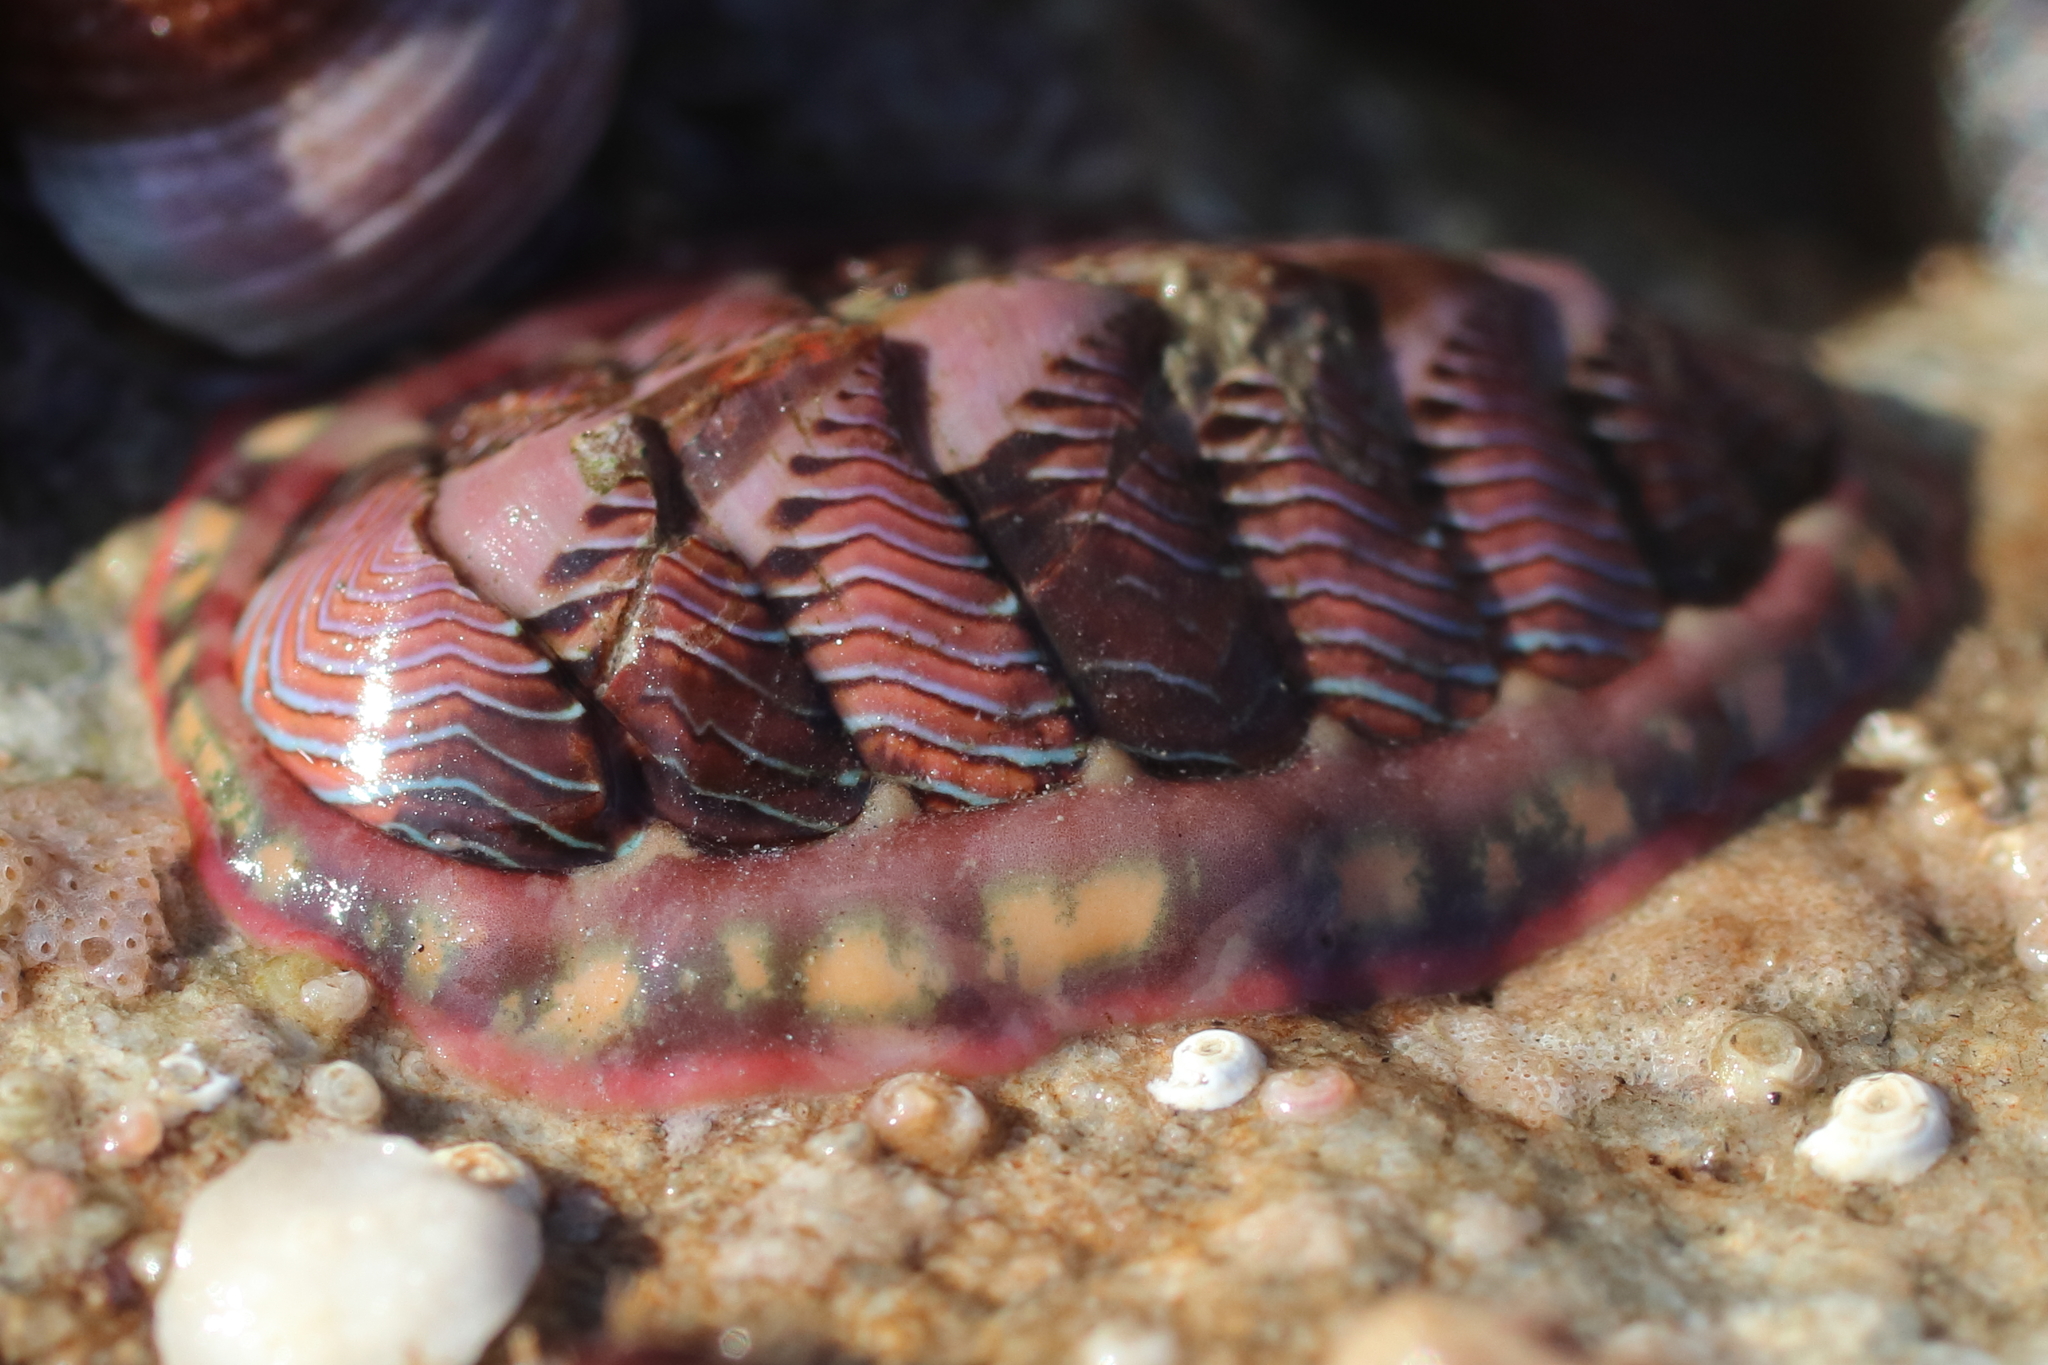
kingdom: Animalia
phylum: Mollusca
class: Polyplacophora
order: Chitonida
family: Tonicellidae
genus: Tonicella
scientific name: Tonicella lineata
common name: Lined chiton
